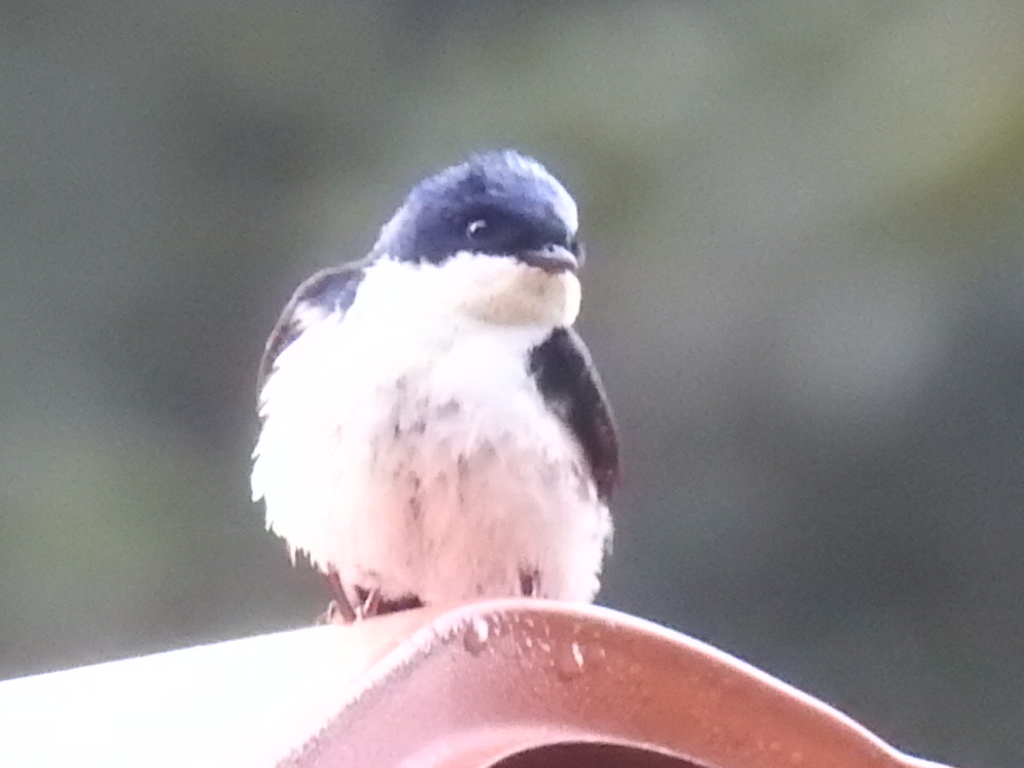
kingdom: Animalia
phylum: Chordata
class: Aves
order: Passeriformes
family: Hirundinidae
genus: Notiochelidon
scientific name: Notiochelidon cyanoleuca
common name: Blue-and-white swallow
